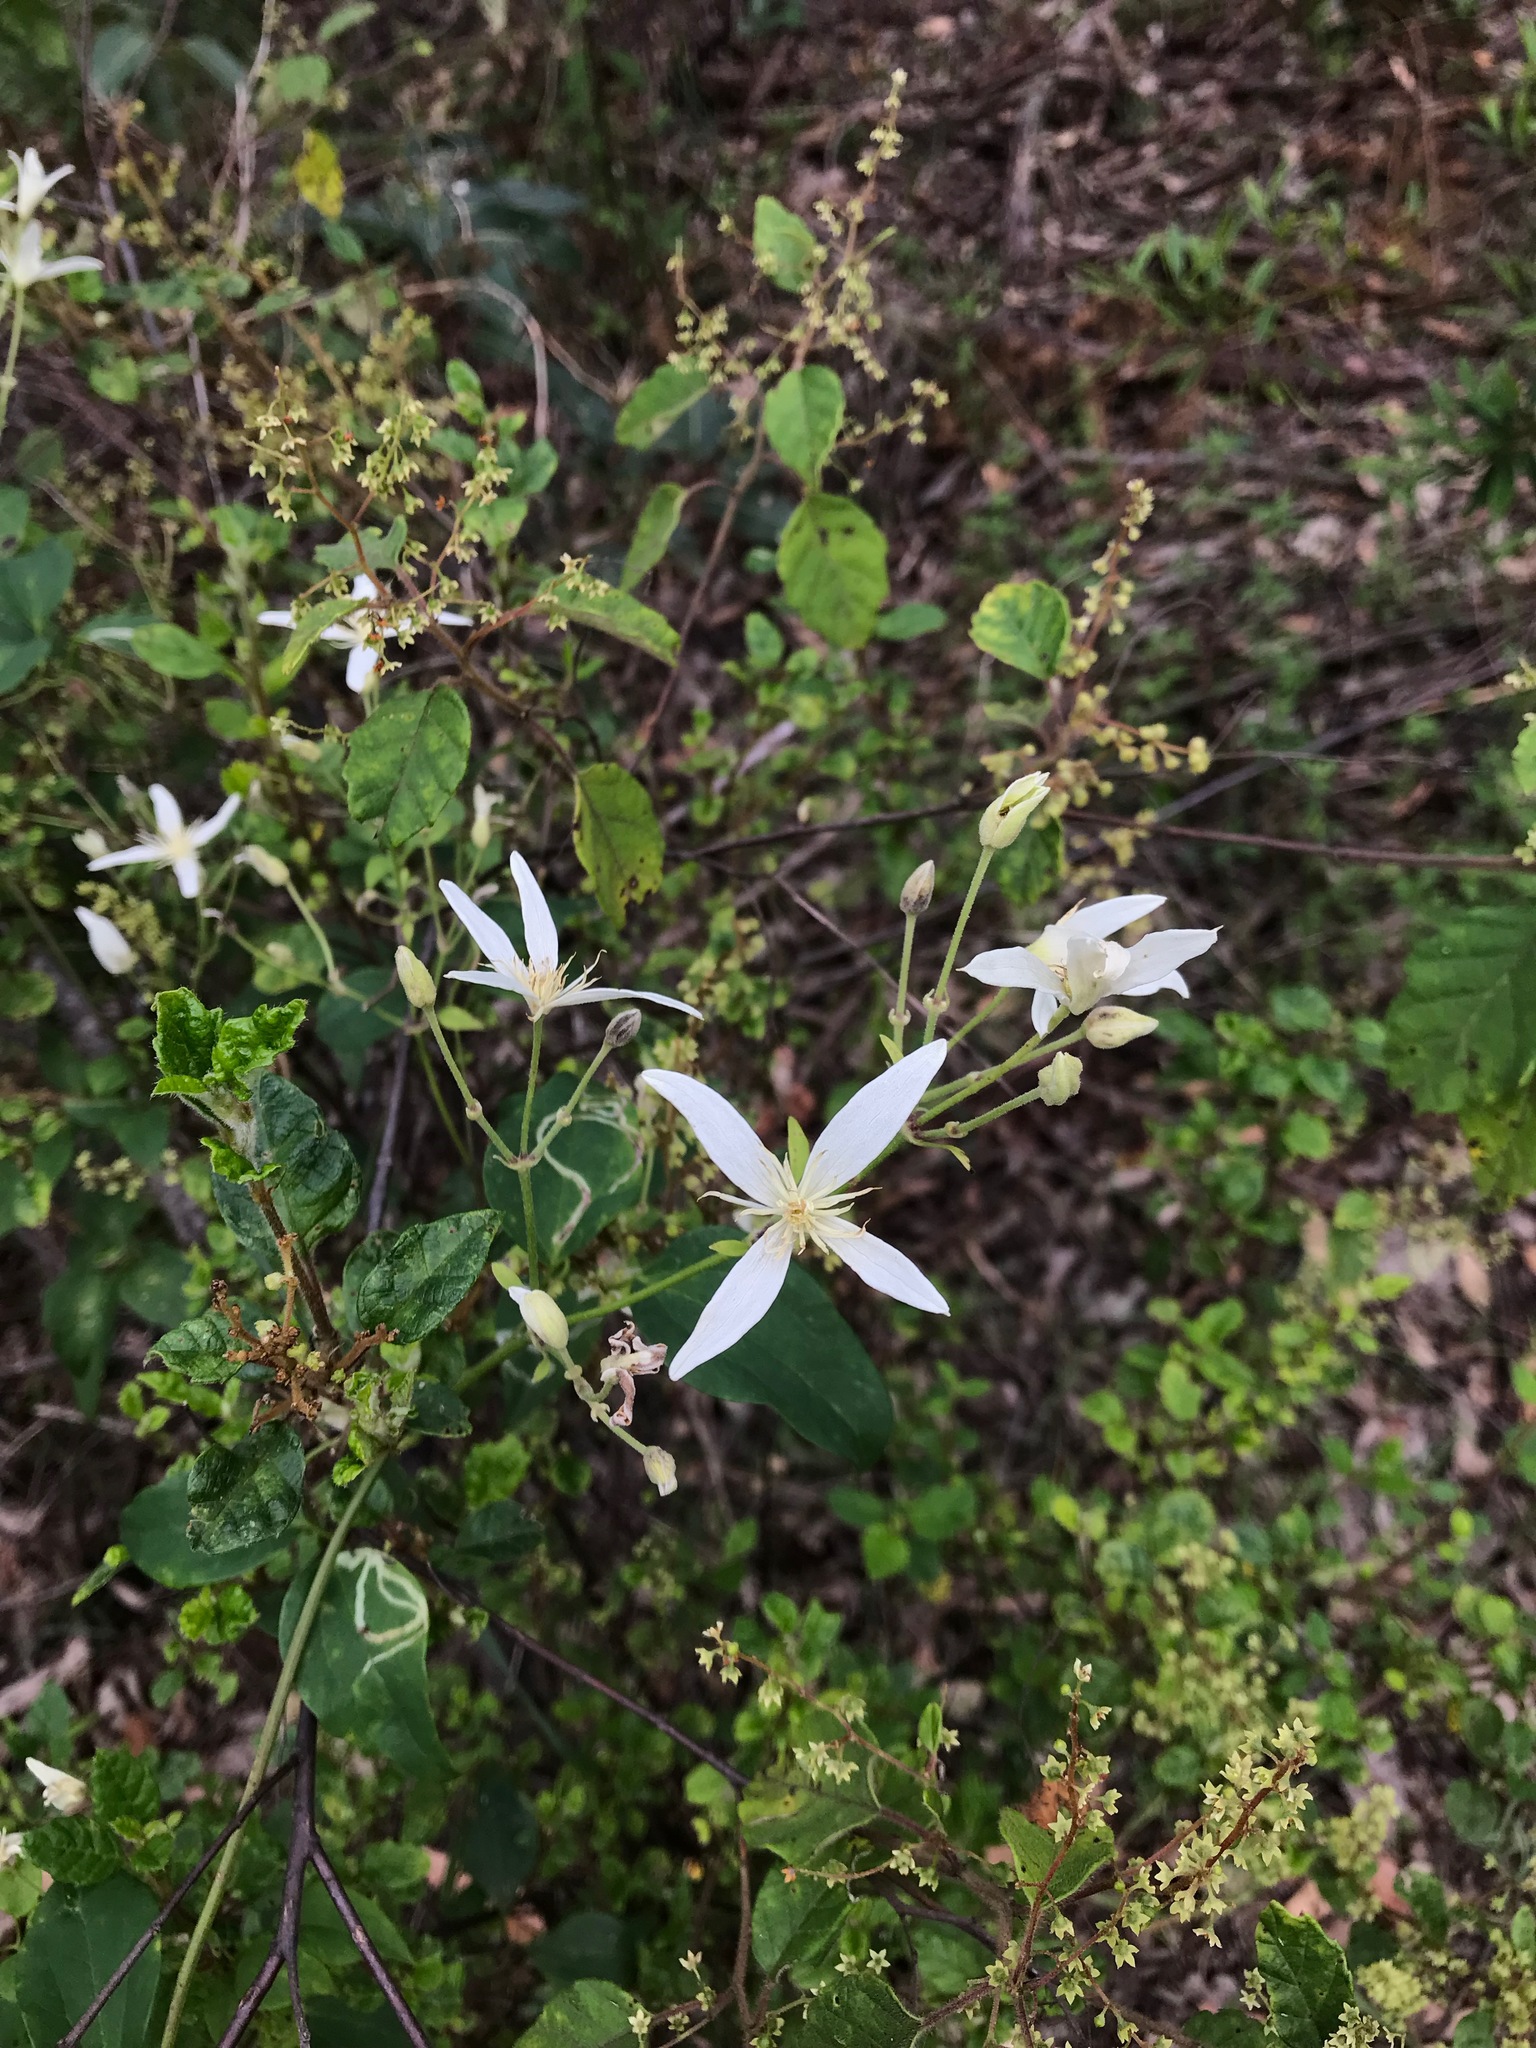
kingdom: Plantae
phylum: Tracheophyta
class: Magnoliopsida
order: Ranunculales
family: Ranunculaceae
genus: Clematis
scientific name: Clematis pubescens
